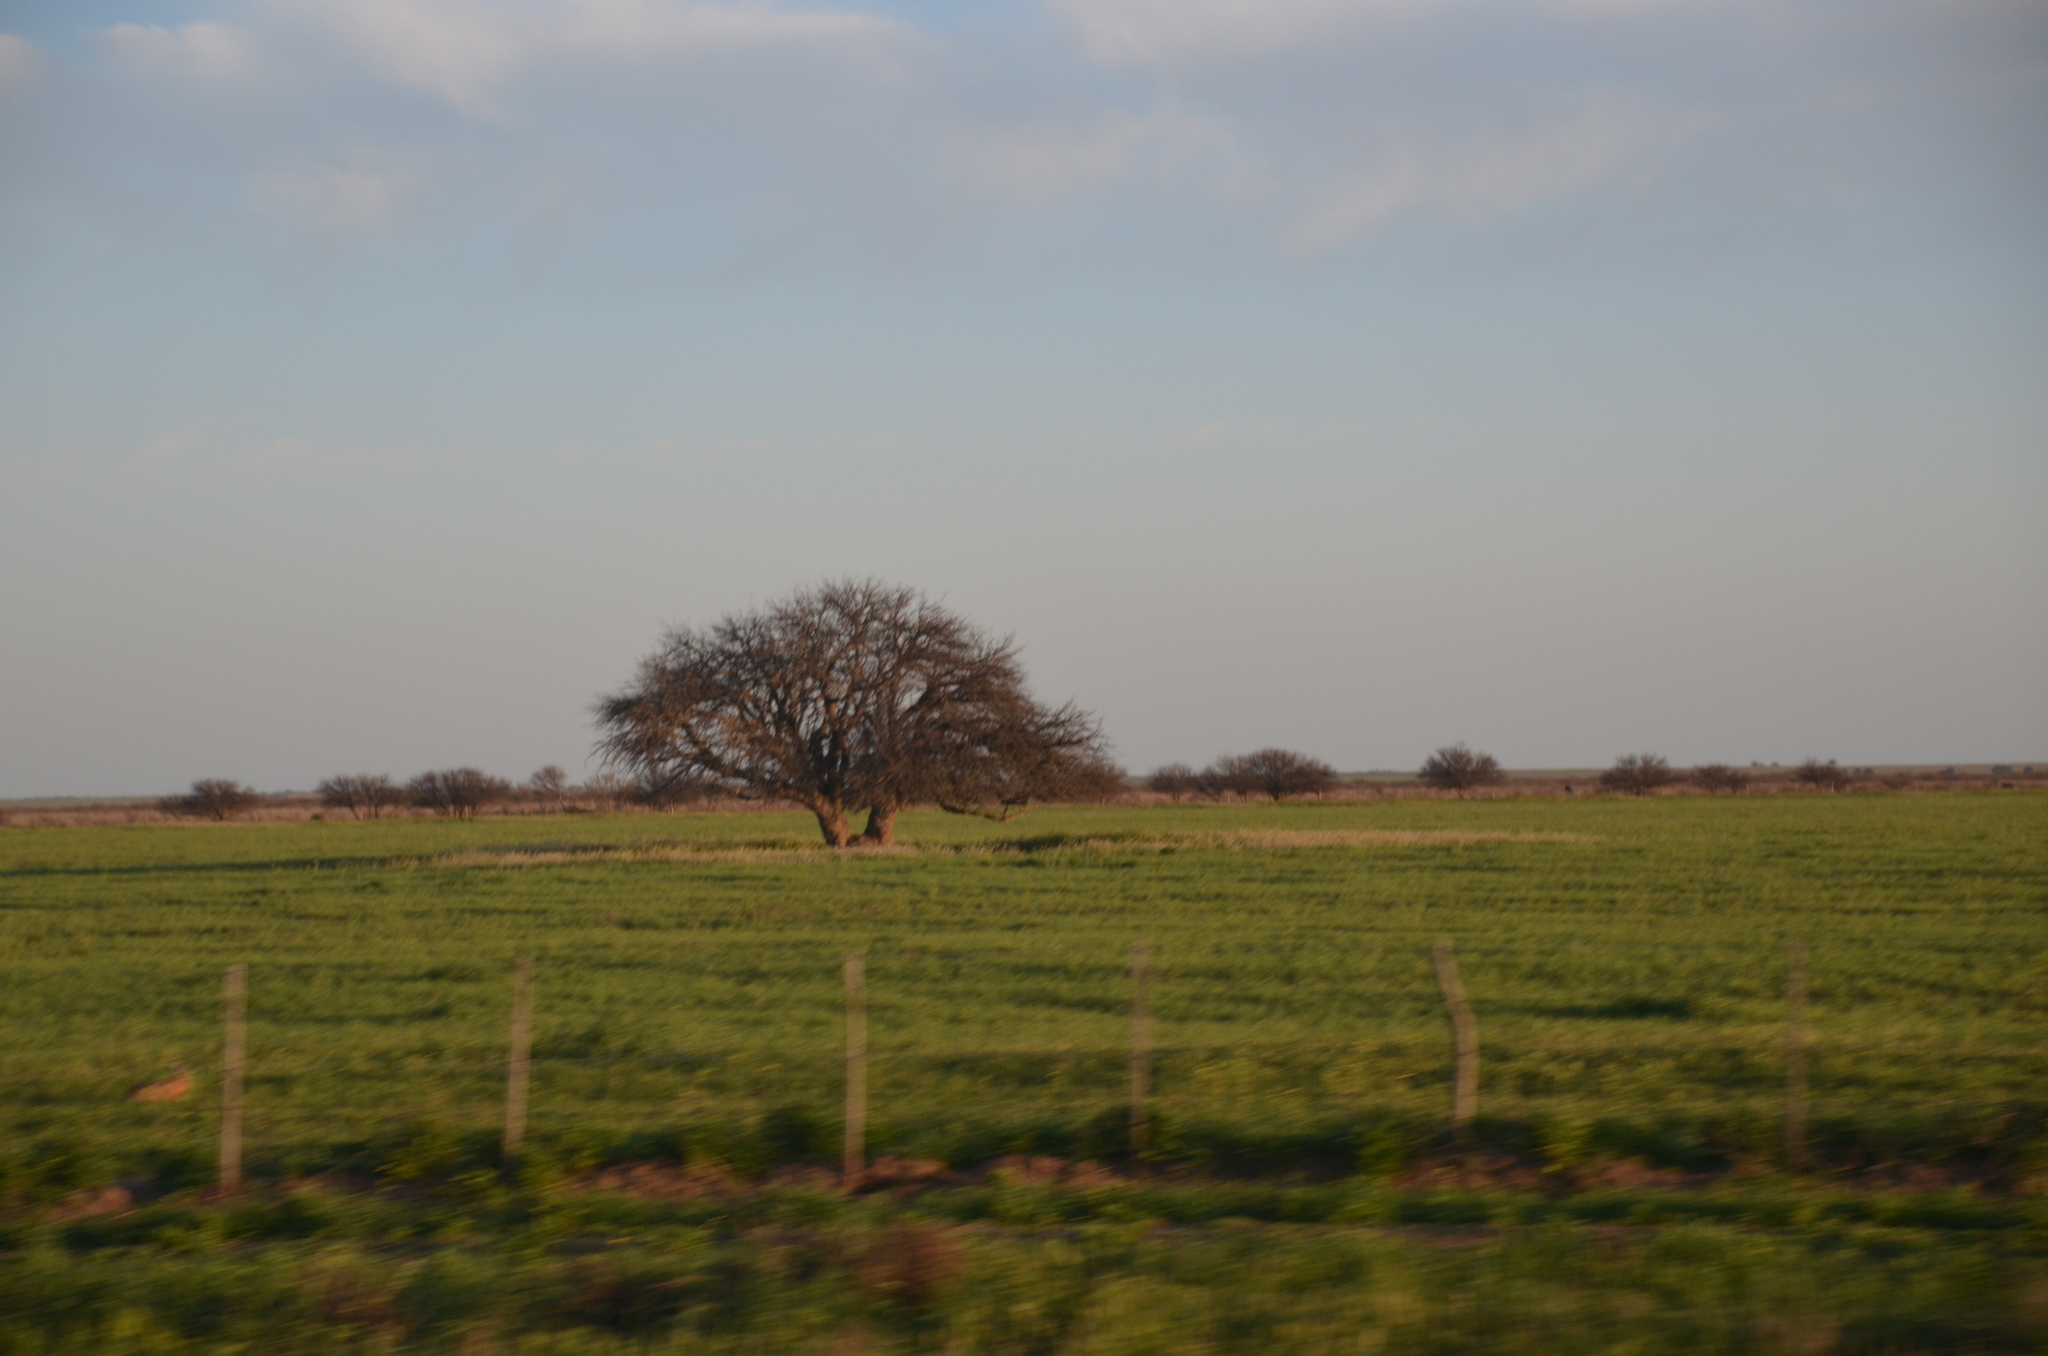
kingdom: Plantae
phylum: Tracheophyta
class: Magnoliopsida
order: Fabales
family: Fabaceae
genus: Prosopis
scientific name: Prosopis caldenia
